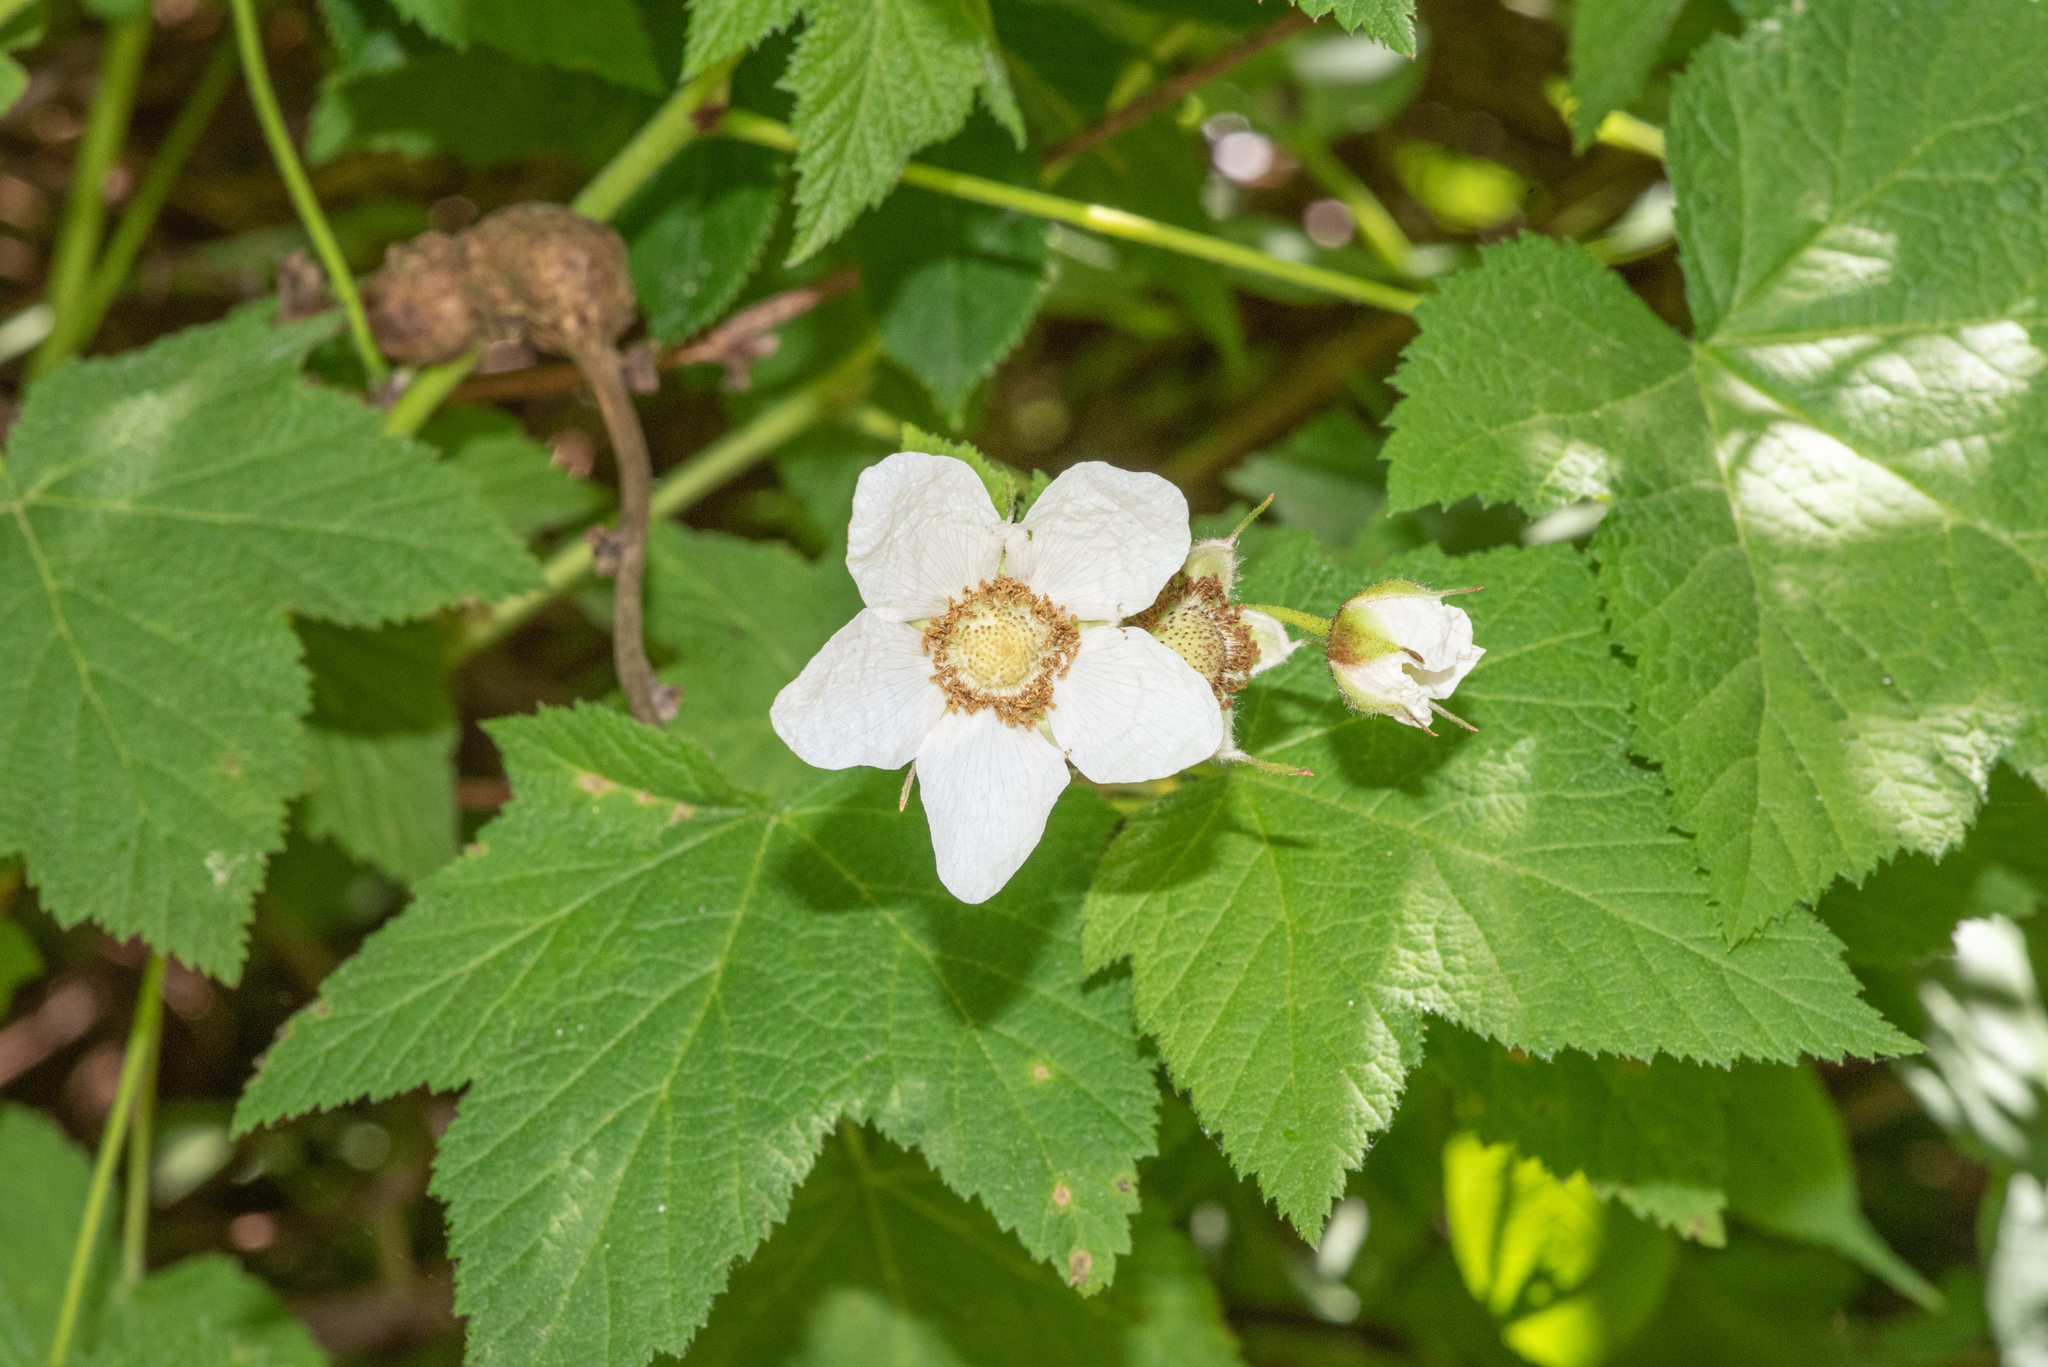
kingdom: Plantae
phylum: Tracheophyta
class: Magnoliopsida
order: Rosales
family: Rosaceae
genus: Rubus
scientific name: Rubus parviflorus
